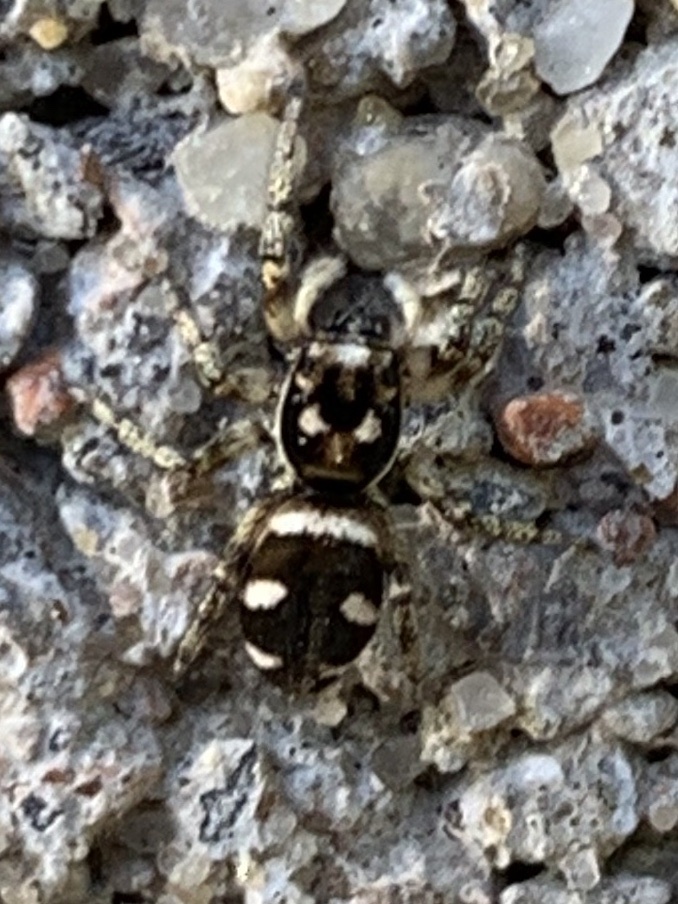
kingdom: Animalia
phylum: Arthropoda
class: Arachnida
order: Araneae
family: Salticidae
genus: Salticus
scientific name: Salticus scenicus
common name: Zebra jumper
